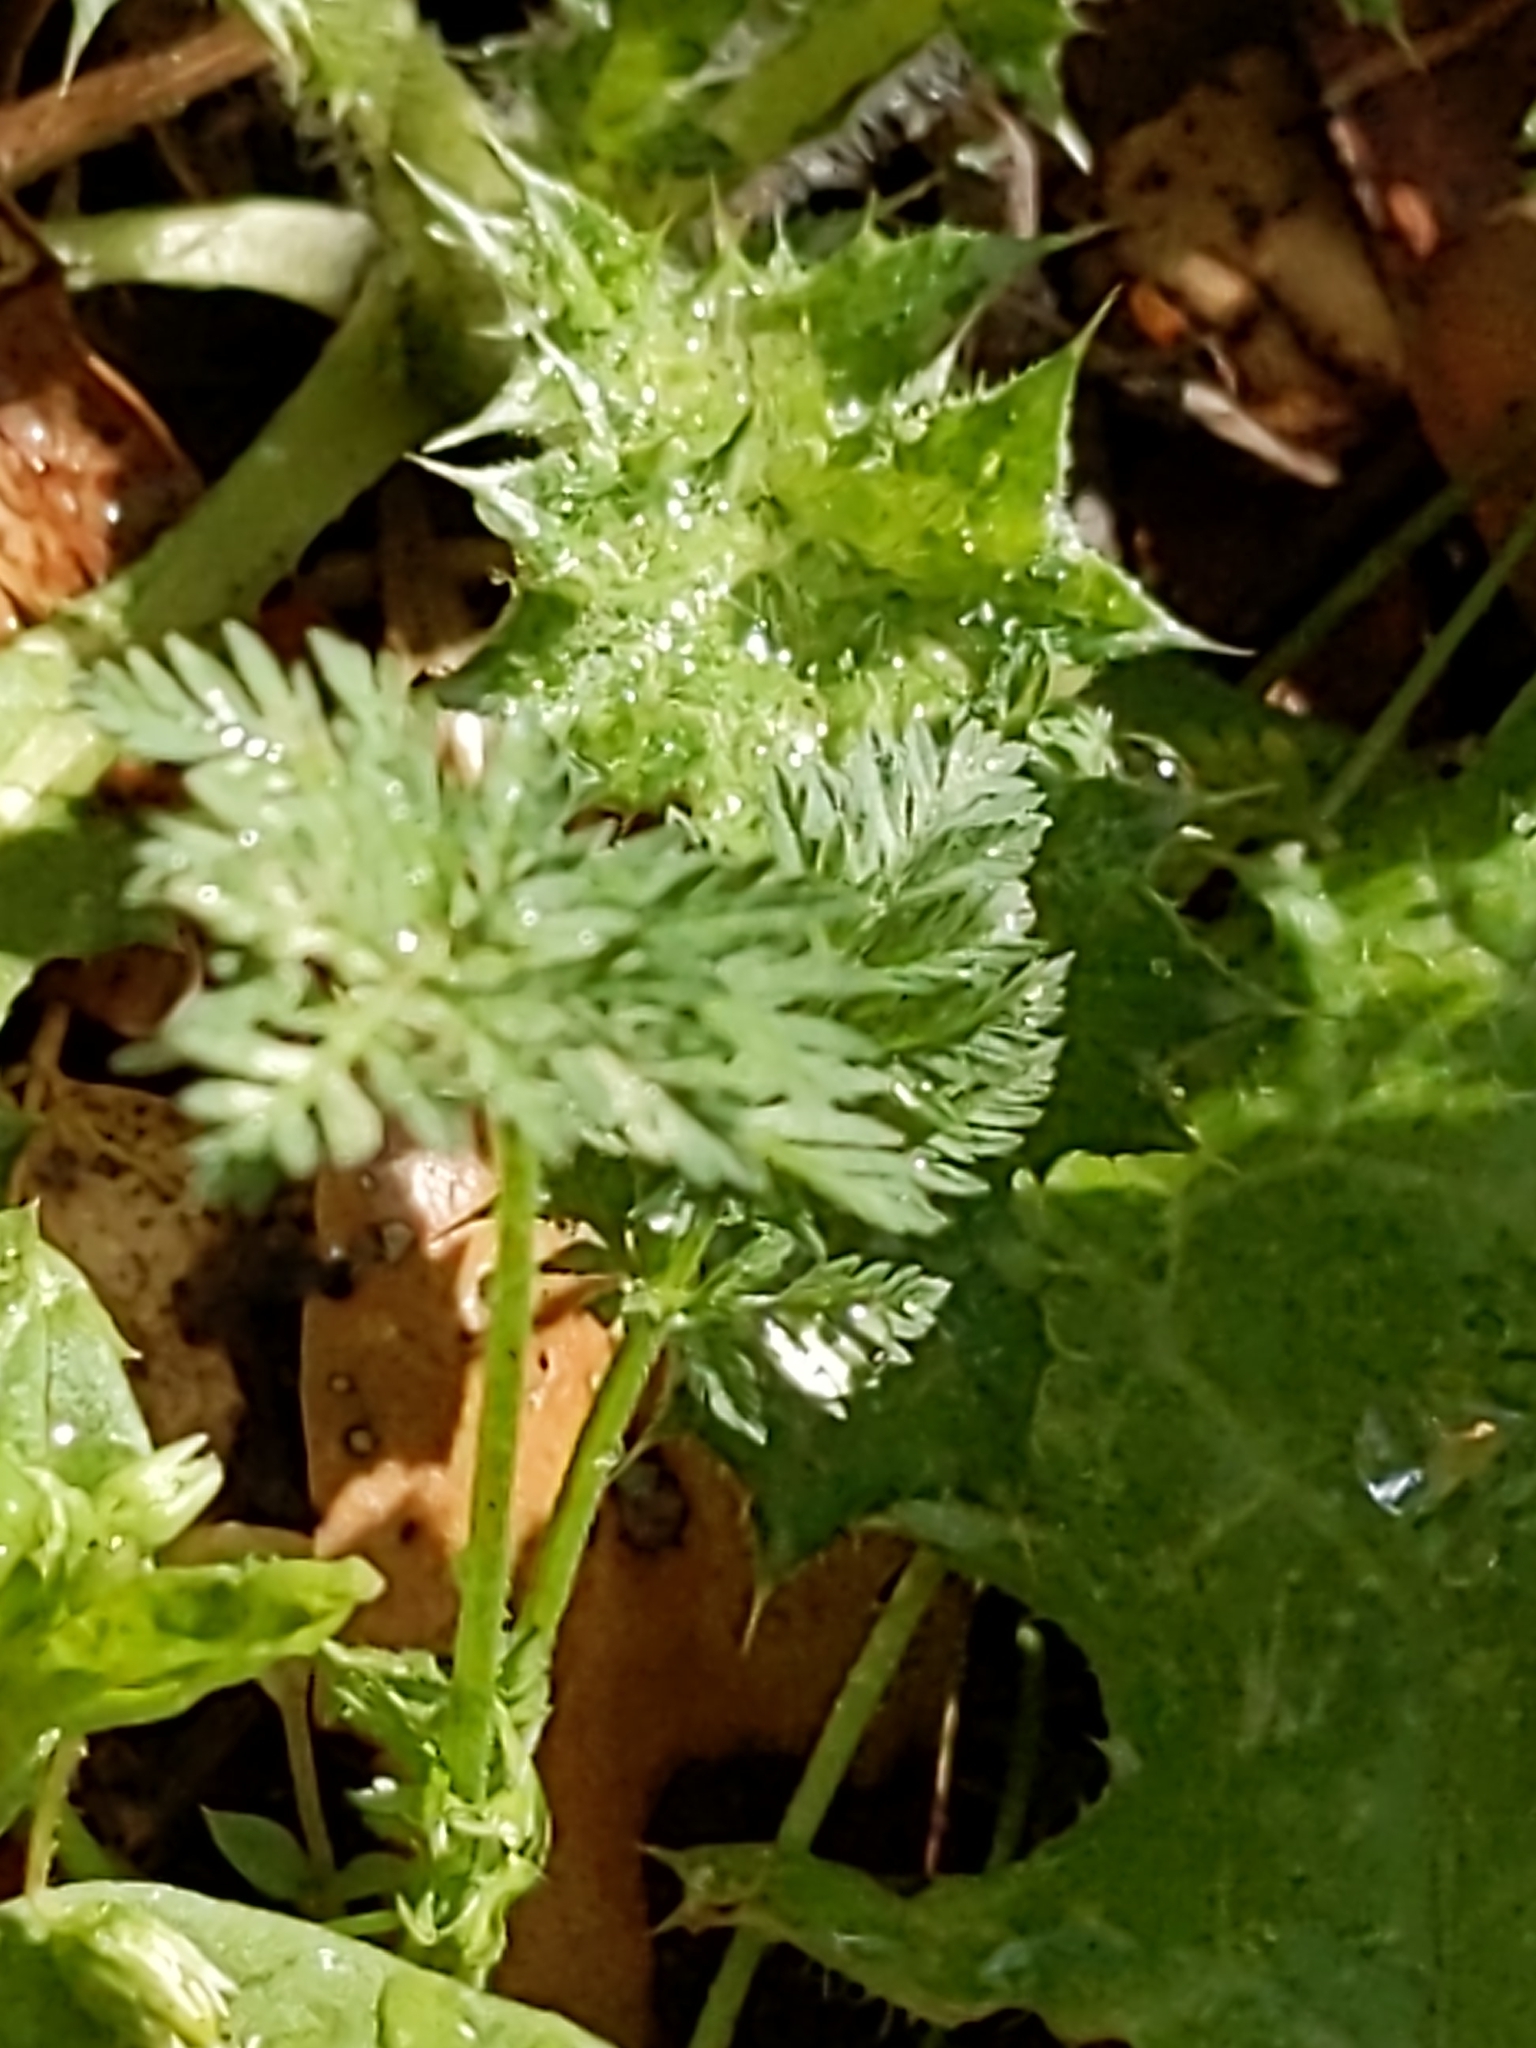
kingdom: Plantae
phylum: Tracheophyta
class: Magnoliopsida
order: Apiales
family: Apiaceae
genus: Conium
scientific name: Conium maculatum
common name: Hemlock
